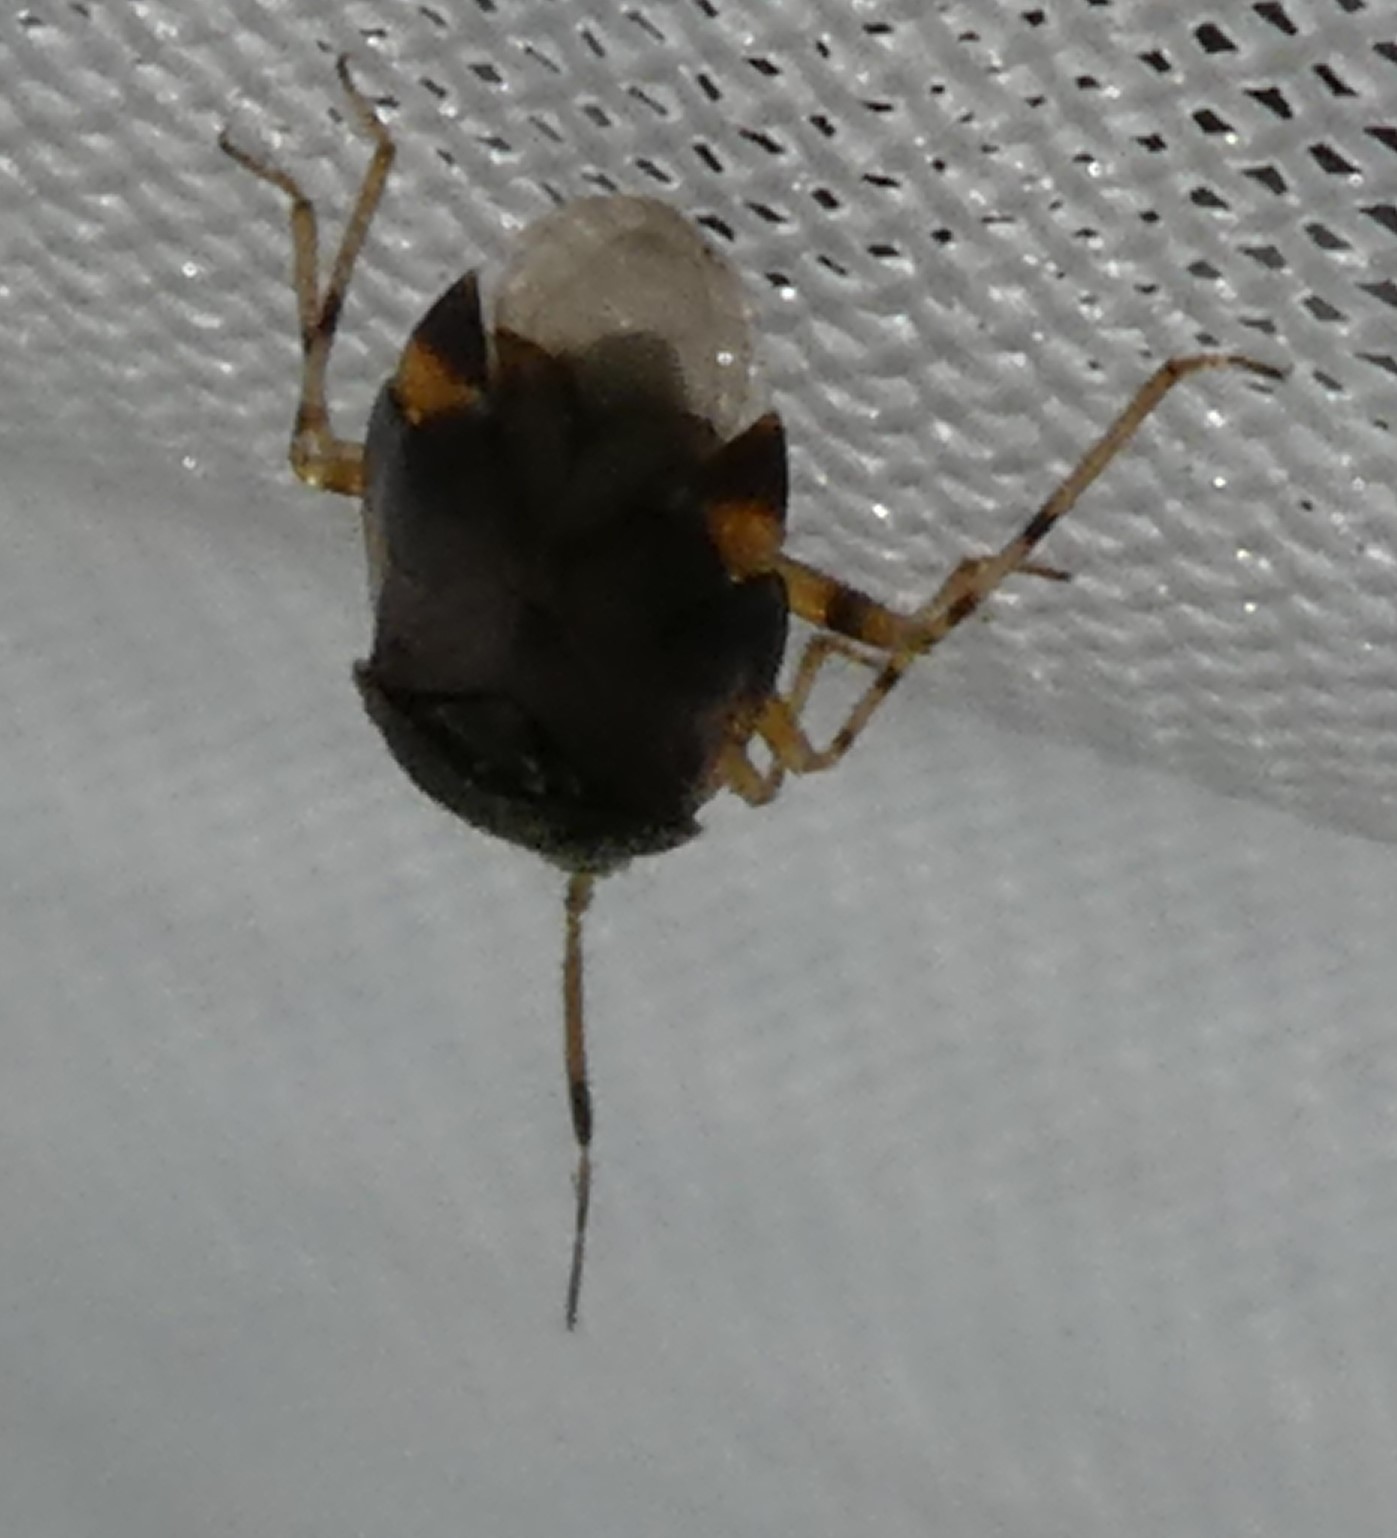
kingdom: Animalia
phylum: Arthropoda
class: Insecta
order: Hemiptera
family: Miridae
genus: Deraeocoris
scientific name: Deraeocoris lutescens
